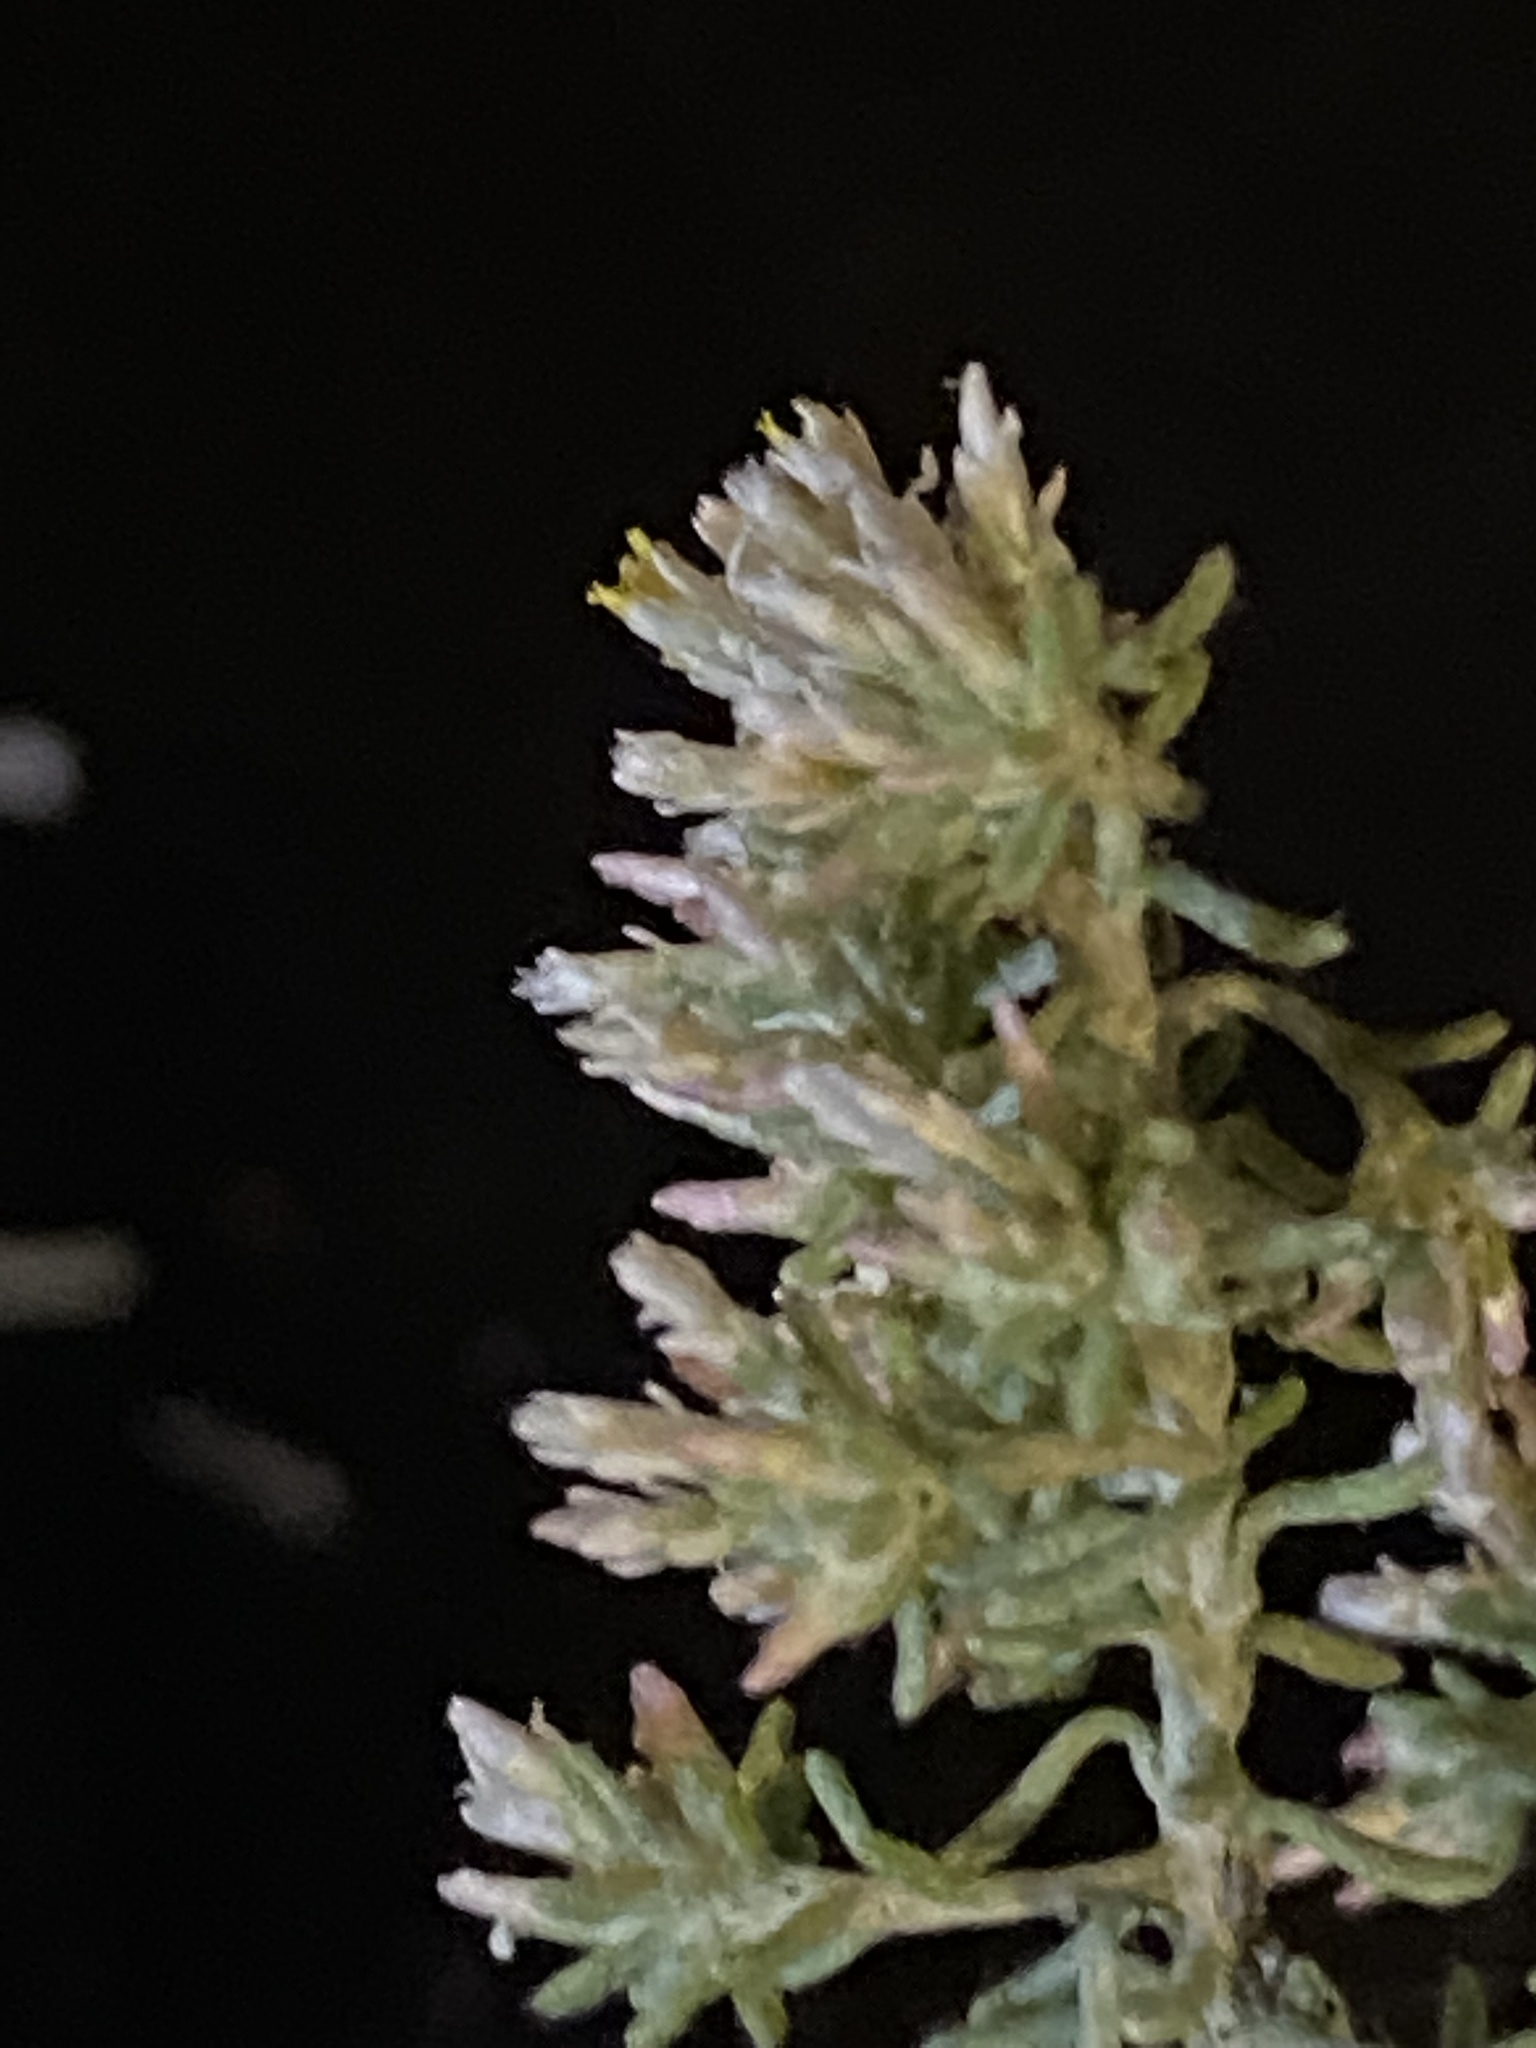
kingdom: Plantae
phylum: Tracheophyta
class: Magnoliopsida
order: Asterales
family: Asteraceae
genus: Helichrysum
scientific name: Helichrysum asperum
